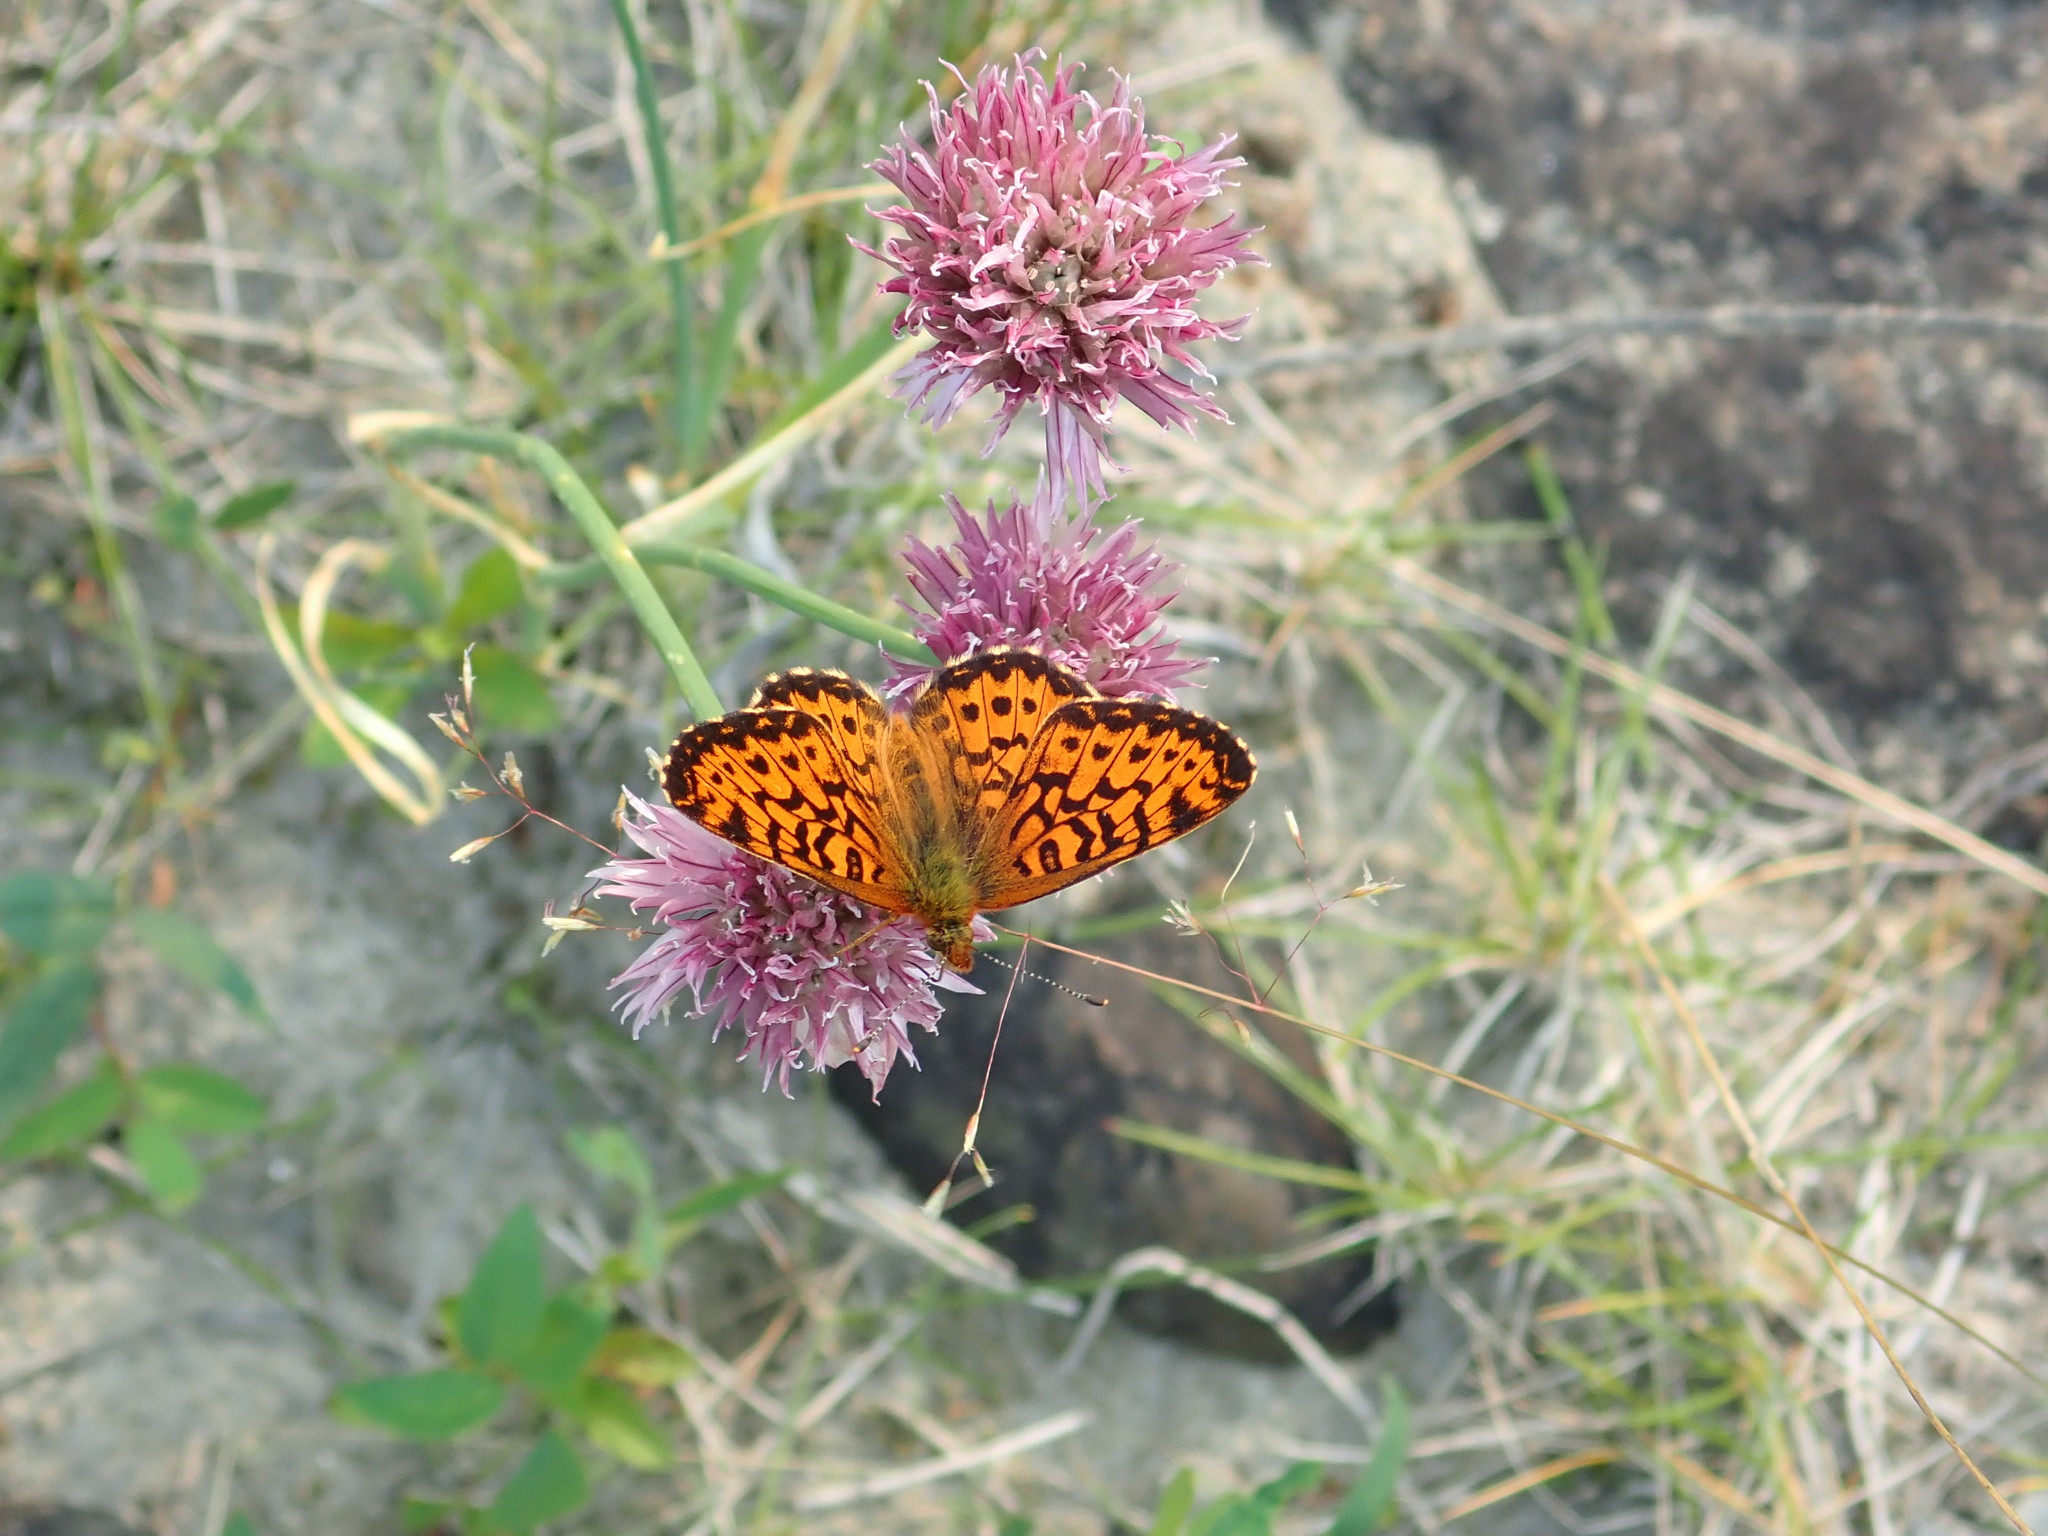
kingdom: Animalia
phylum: Arthropoda
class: Insecta
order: Lepidoptera
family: Nymphalidae
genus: Clossiana
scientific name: Clossiana chariclea
